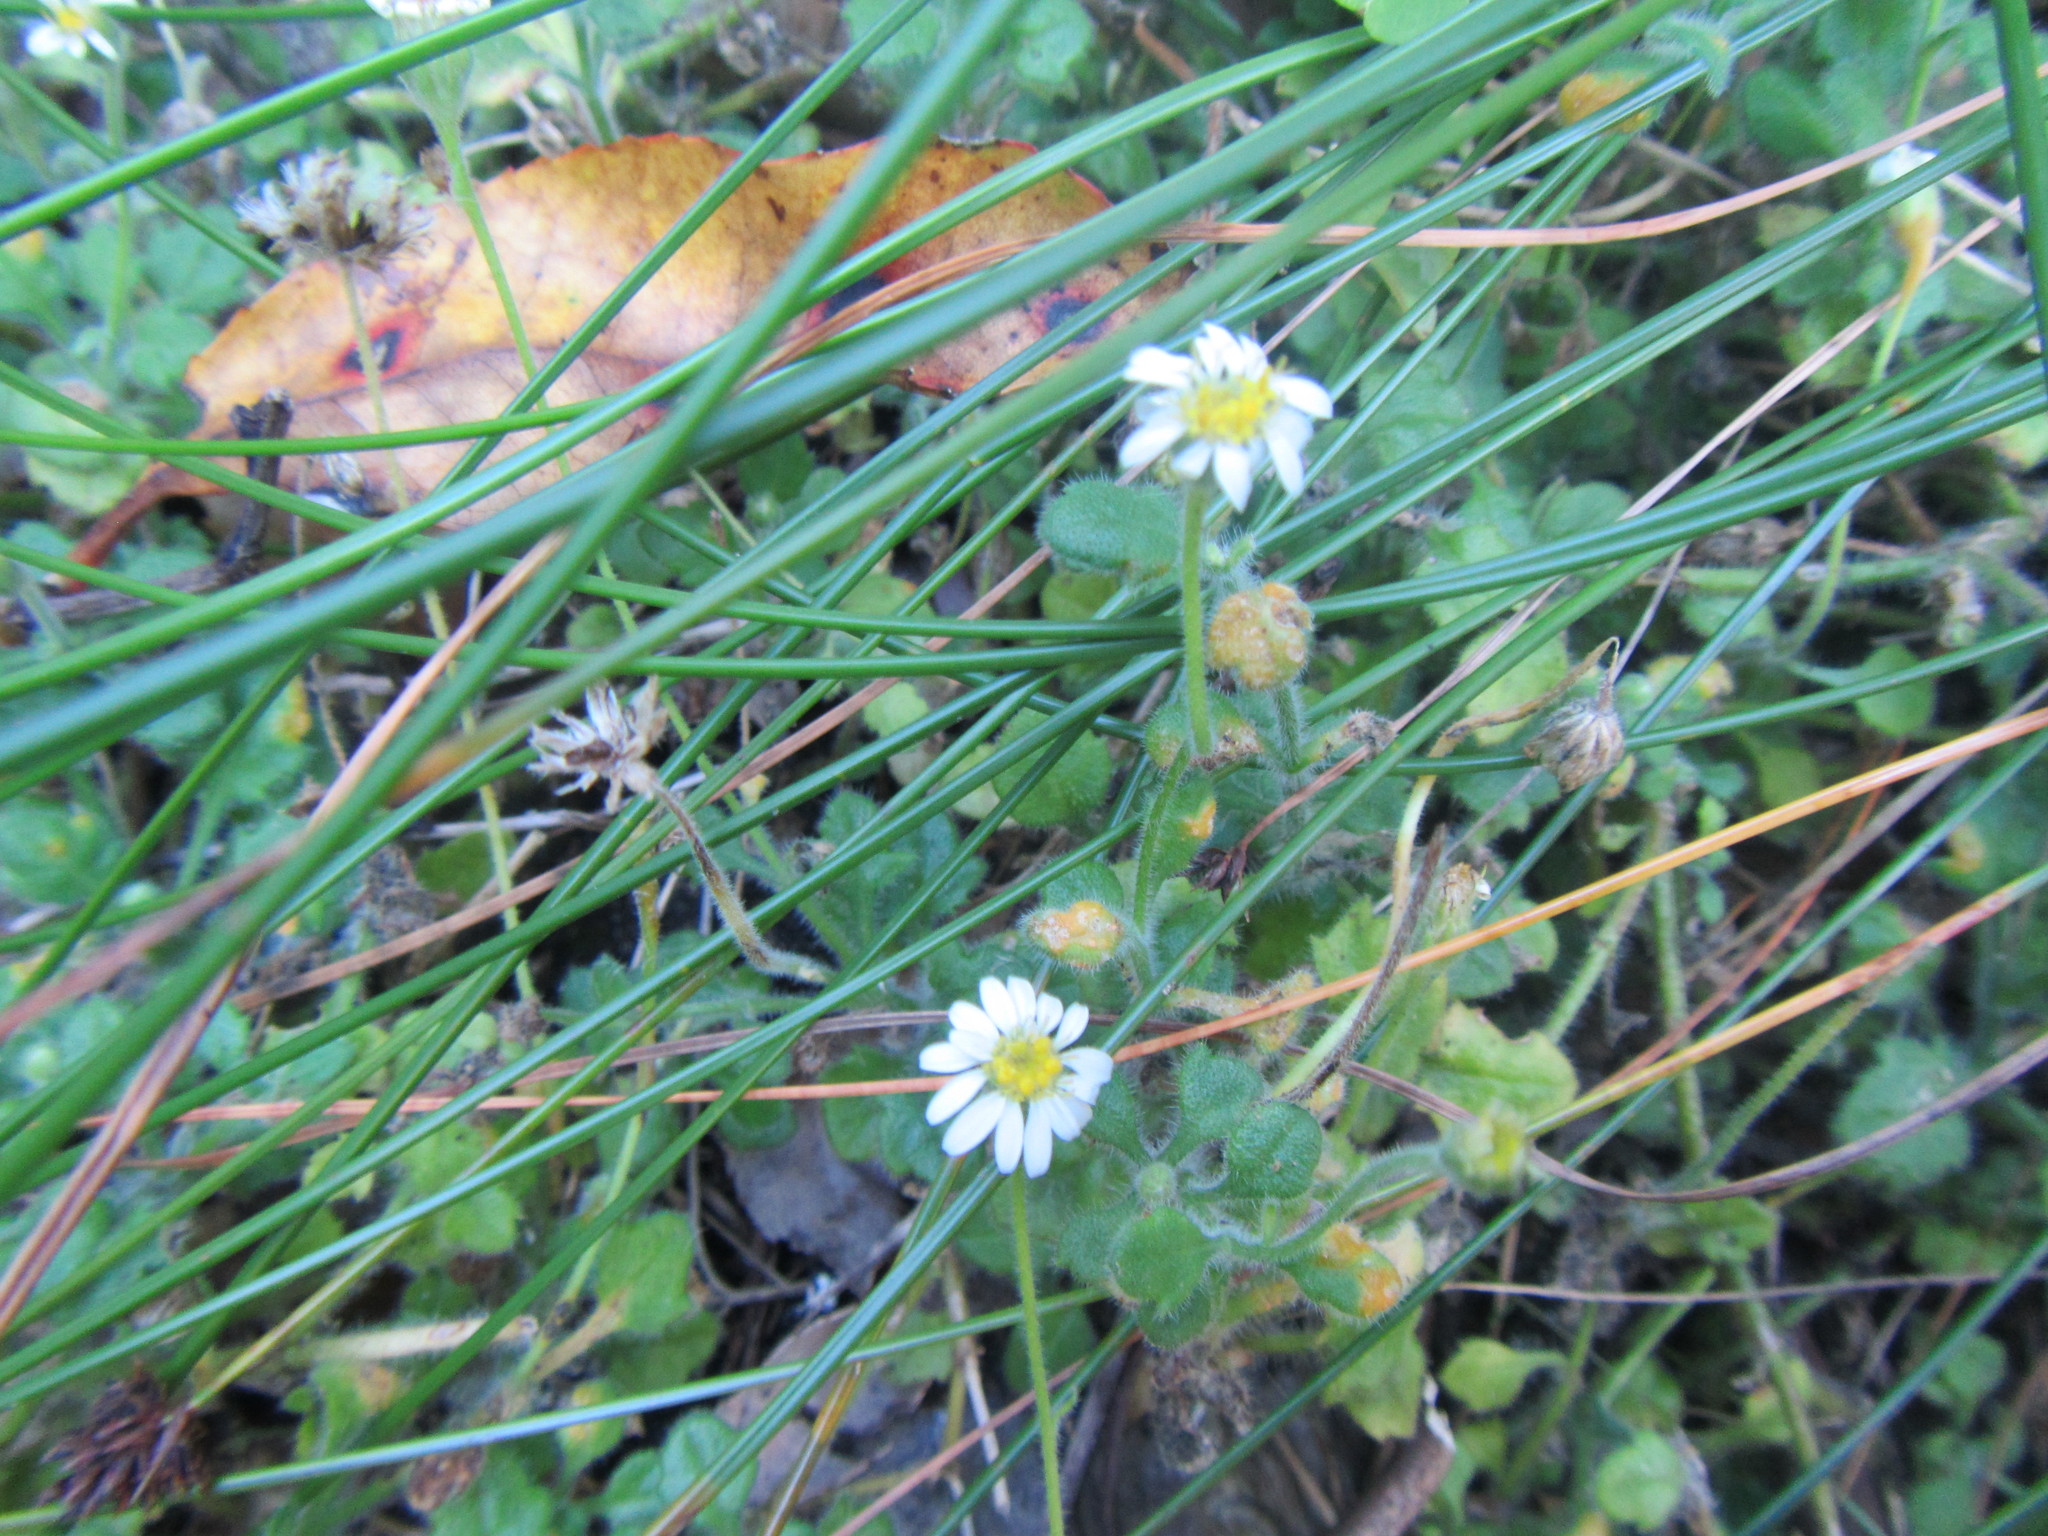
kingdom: Plantae
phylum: Tracheophyta
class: Magnoliopsida
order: Asterales
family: Asteraceae
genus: Felicia
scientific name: Felicia cymbalariae
